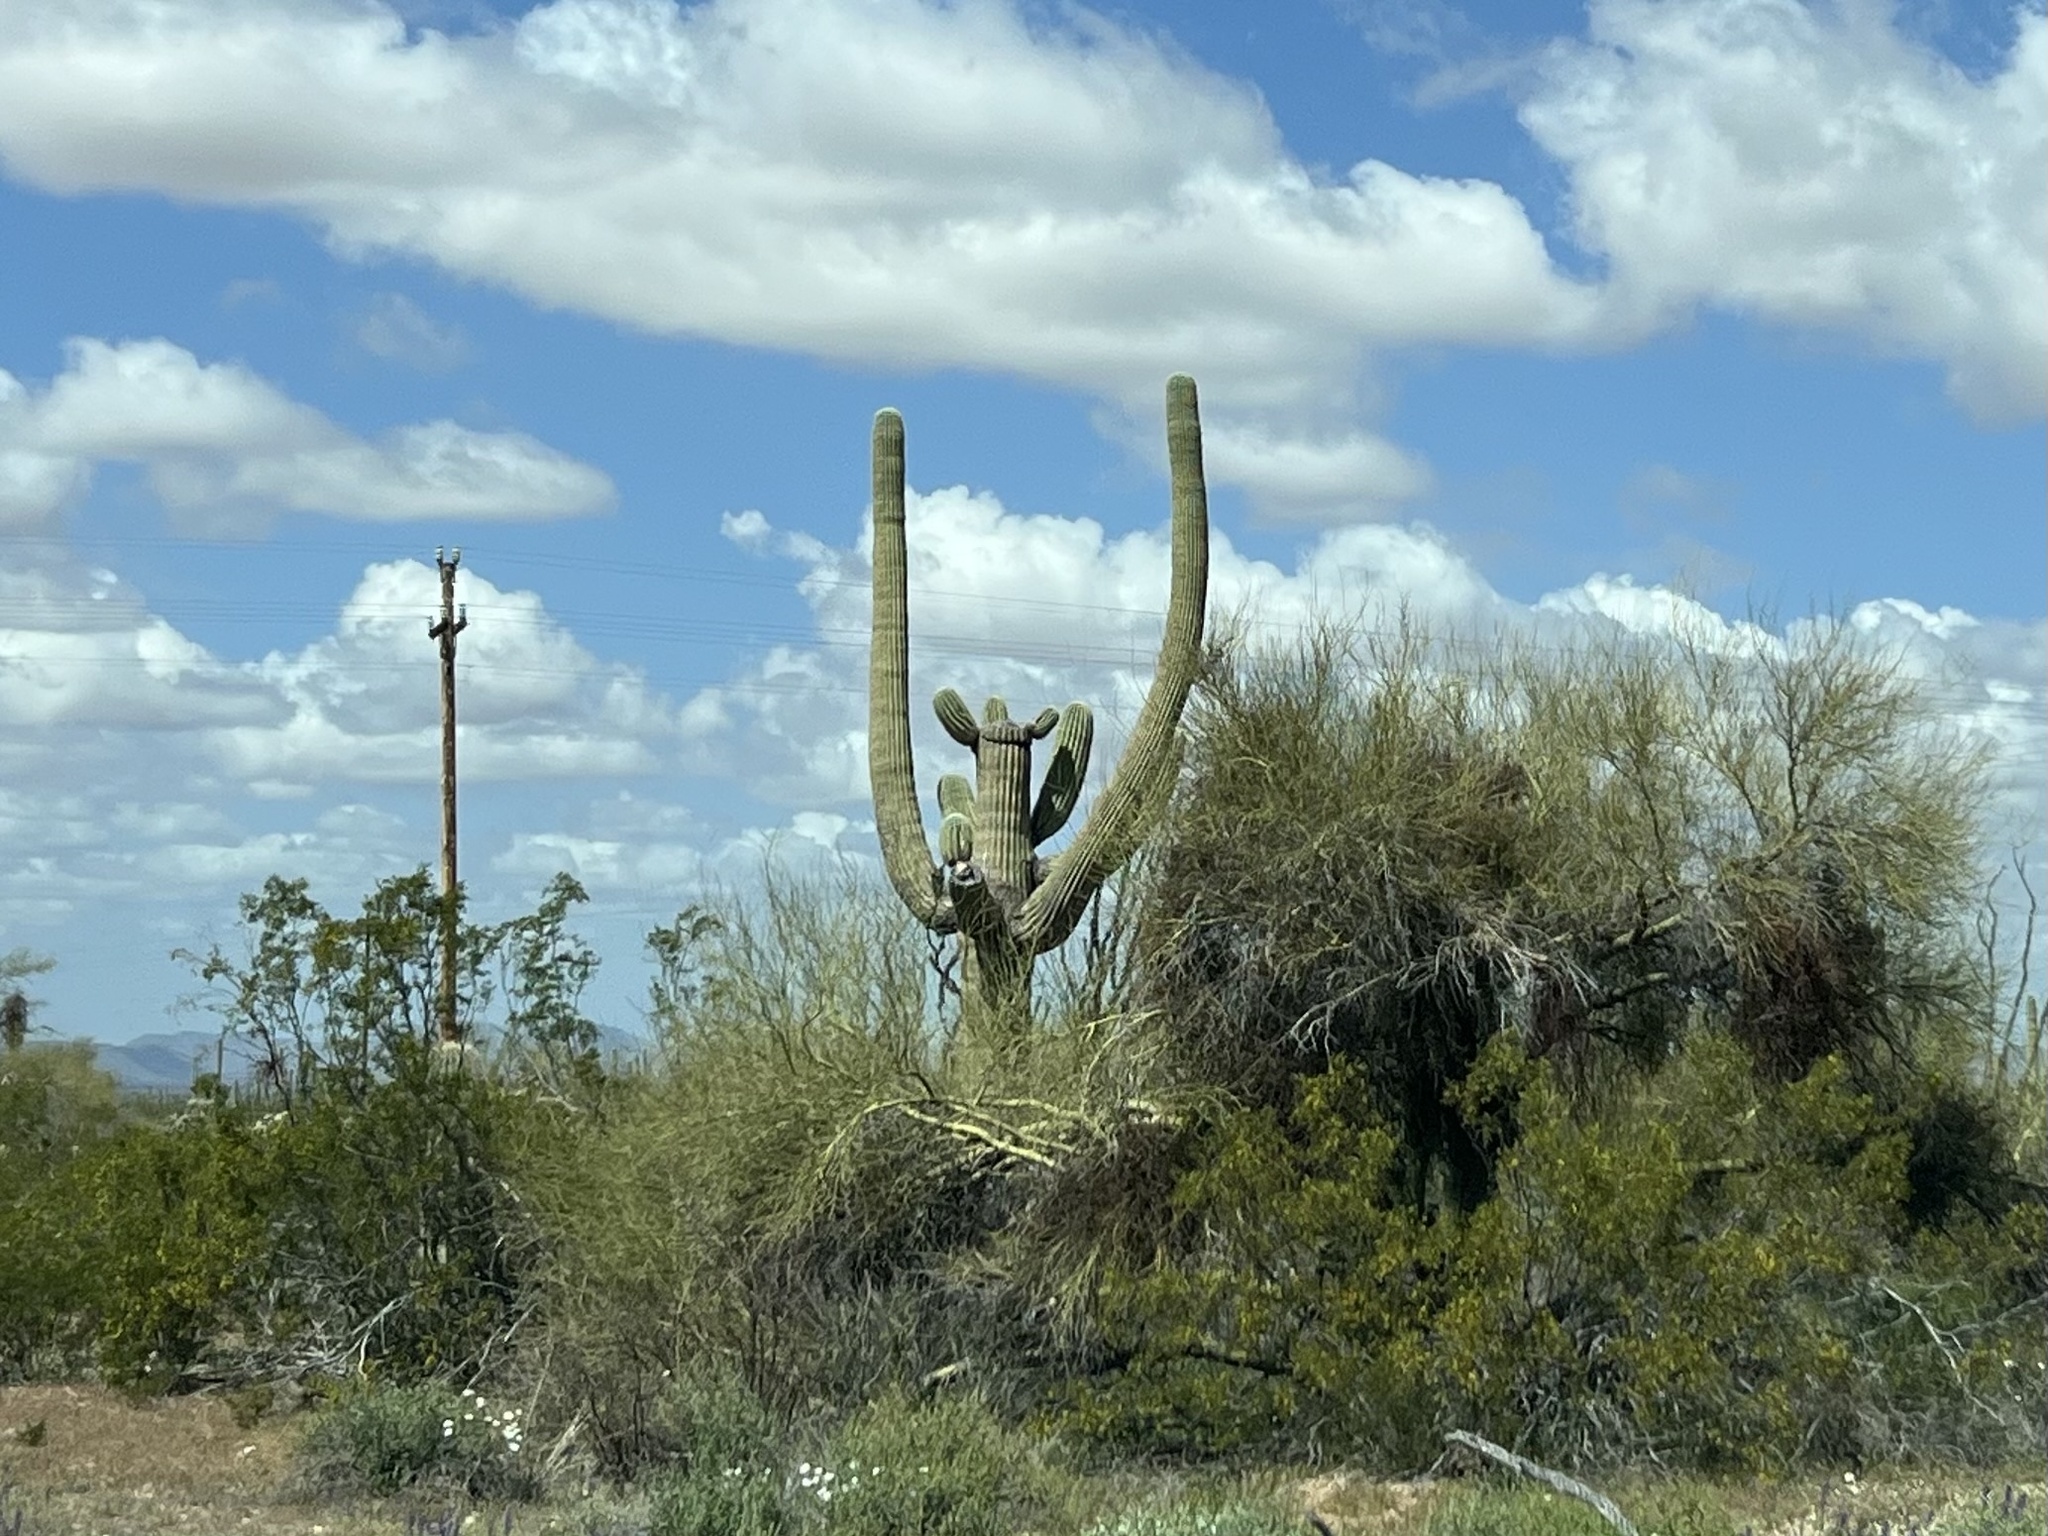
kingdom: Plantae
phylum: Tracheophyta
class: Magnoliopsida
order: Caryophyllales
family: Cactaceae
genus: Carnegiea
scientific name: Carnegiea gigantea
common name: Saguaro
